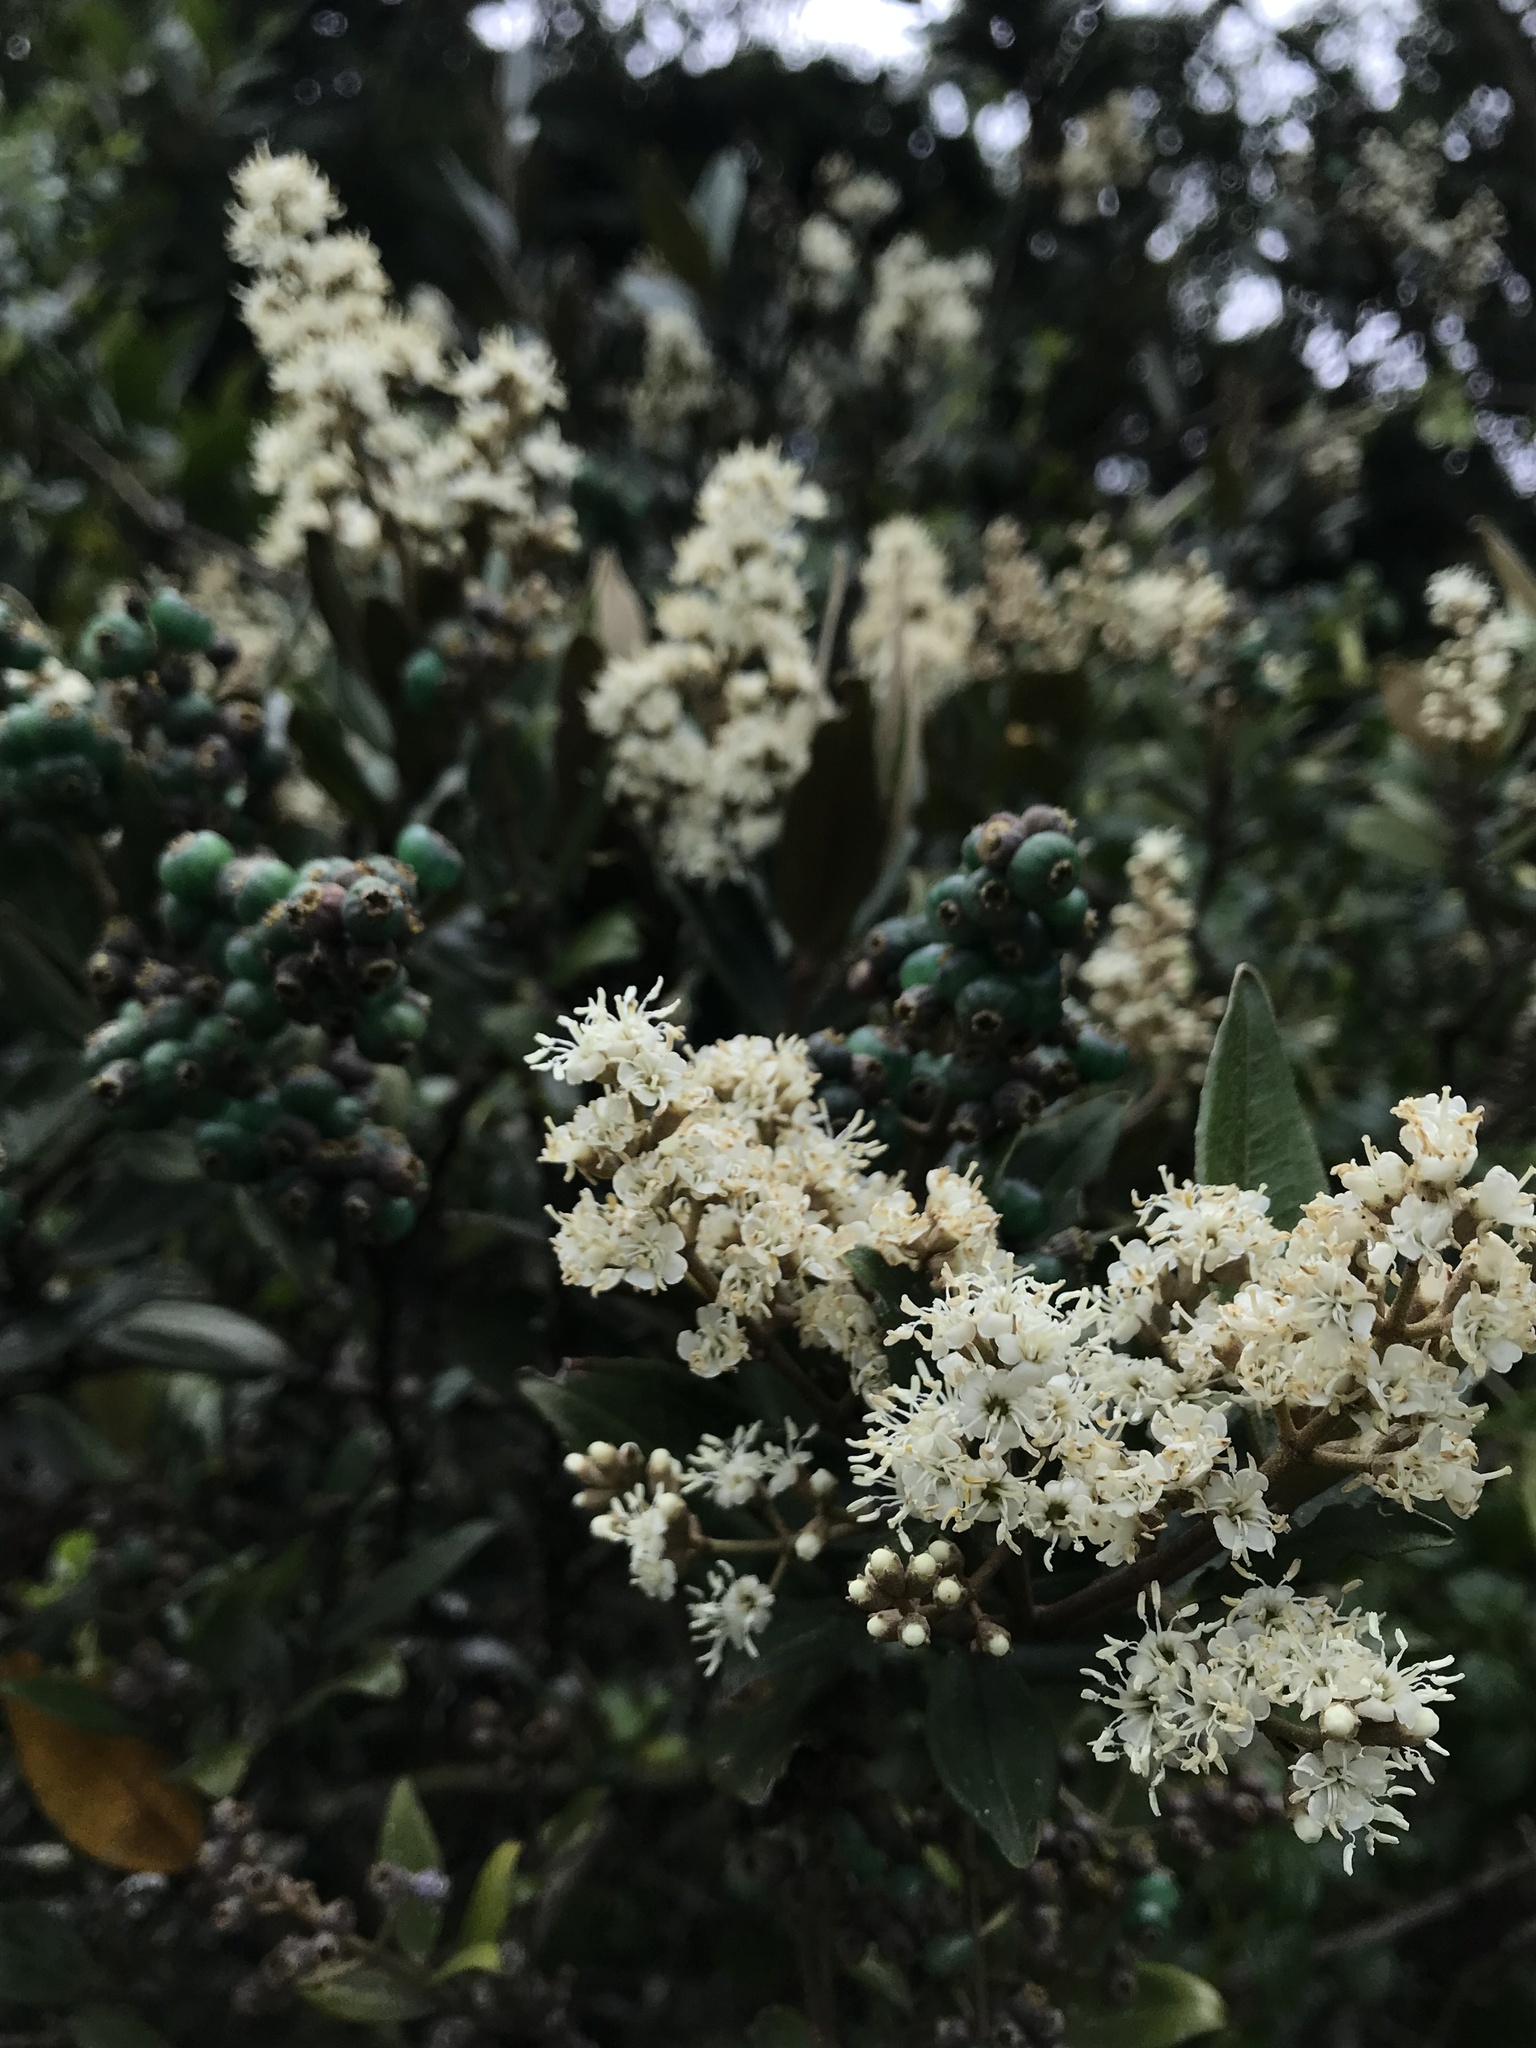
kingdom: Plantae
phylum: Tracheophyta
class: Magnoliopsida
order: Myrtales
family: Melastomataceae
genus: Miconia
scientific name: Miconia squamulosa
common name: Squamulose maya
